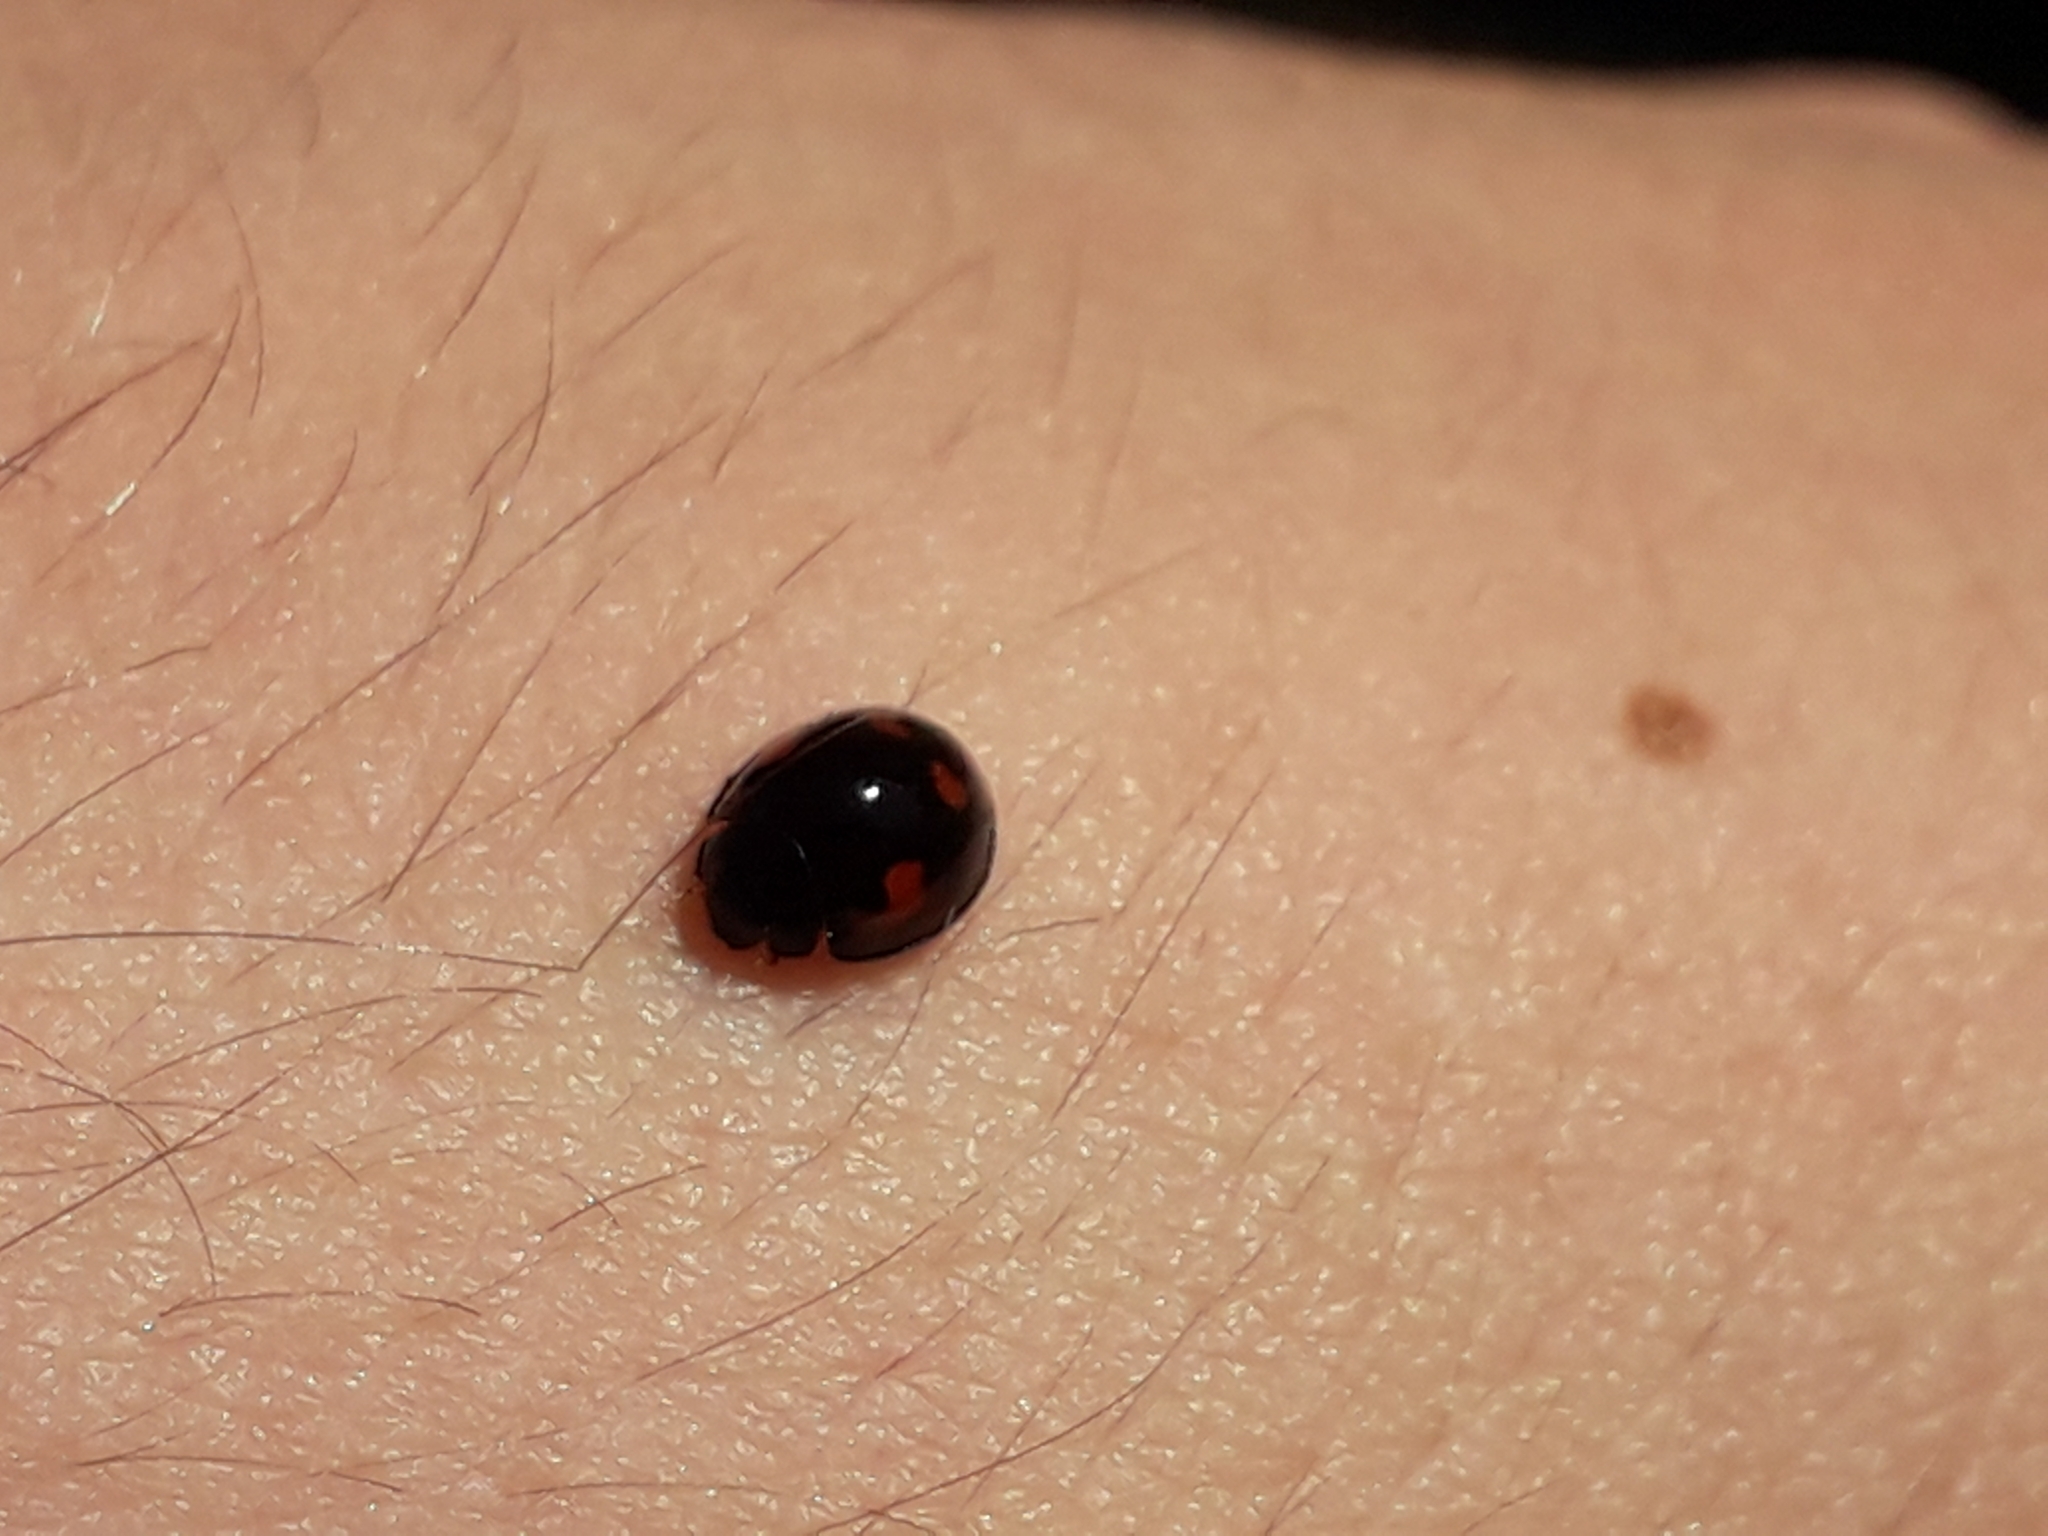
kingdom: Animalia
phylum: Arthropoda
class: Insecta
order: Coleoptera
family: Coccinellidae
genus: Brumus
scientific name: Brumus quadripustulatus
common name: Ladybird beetle
